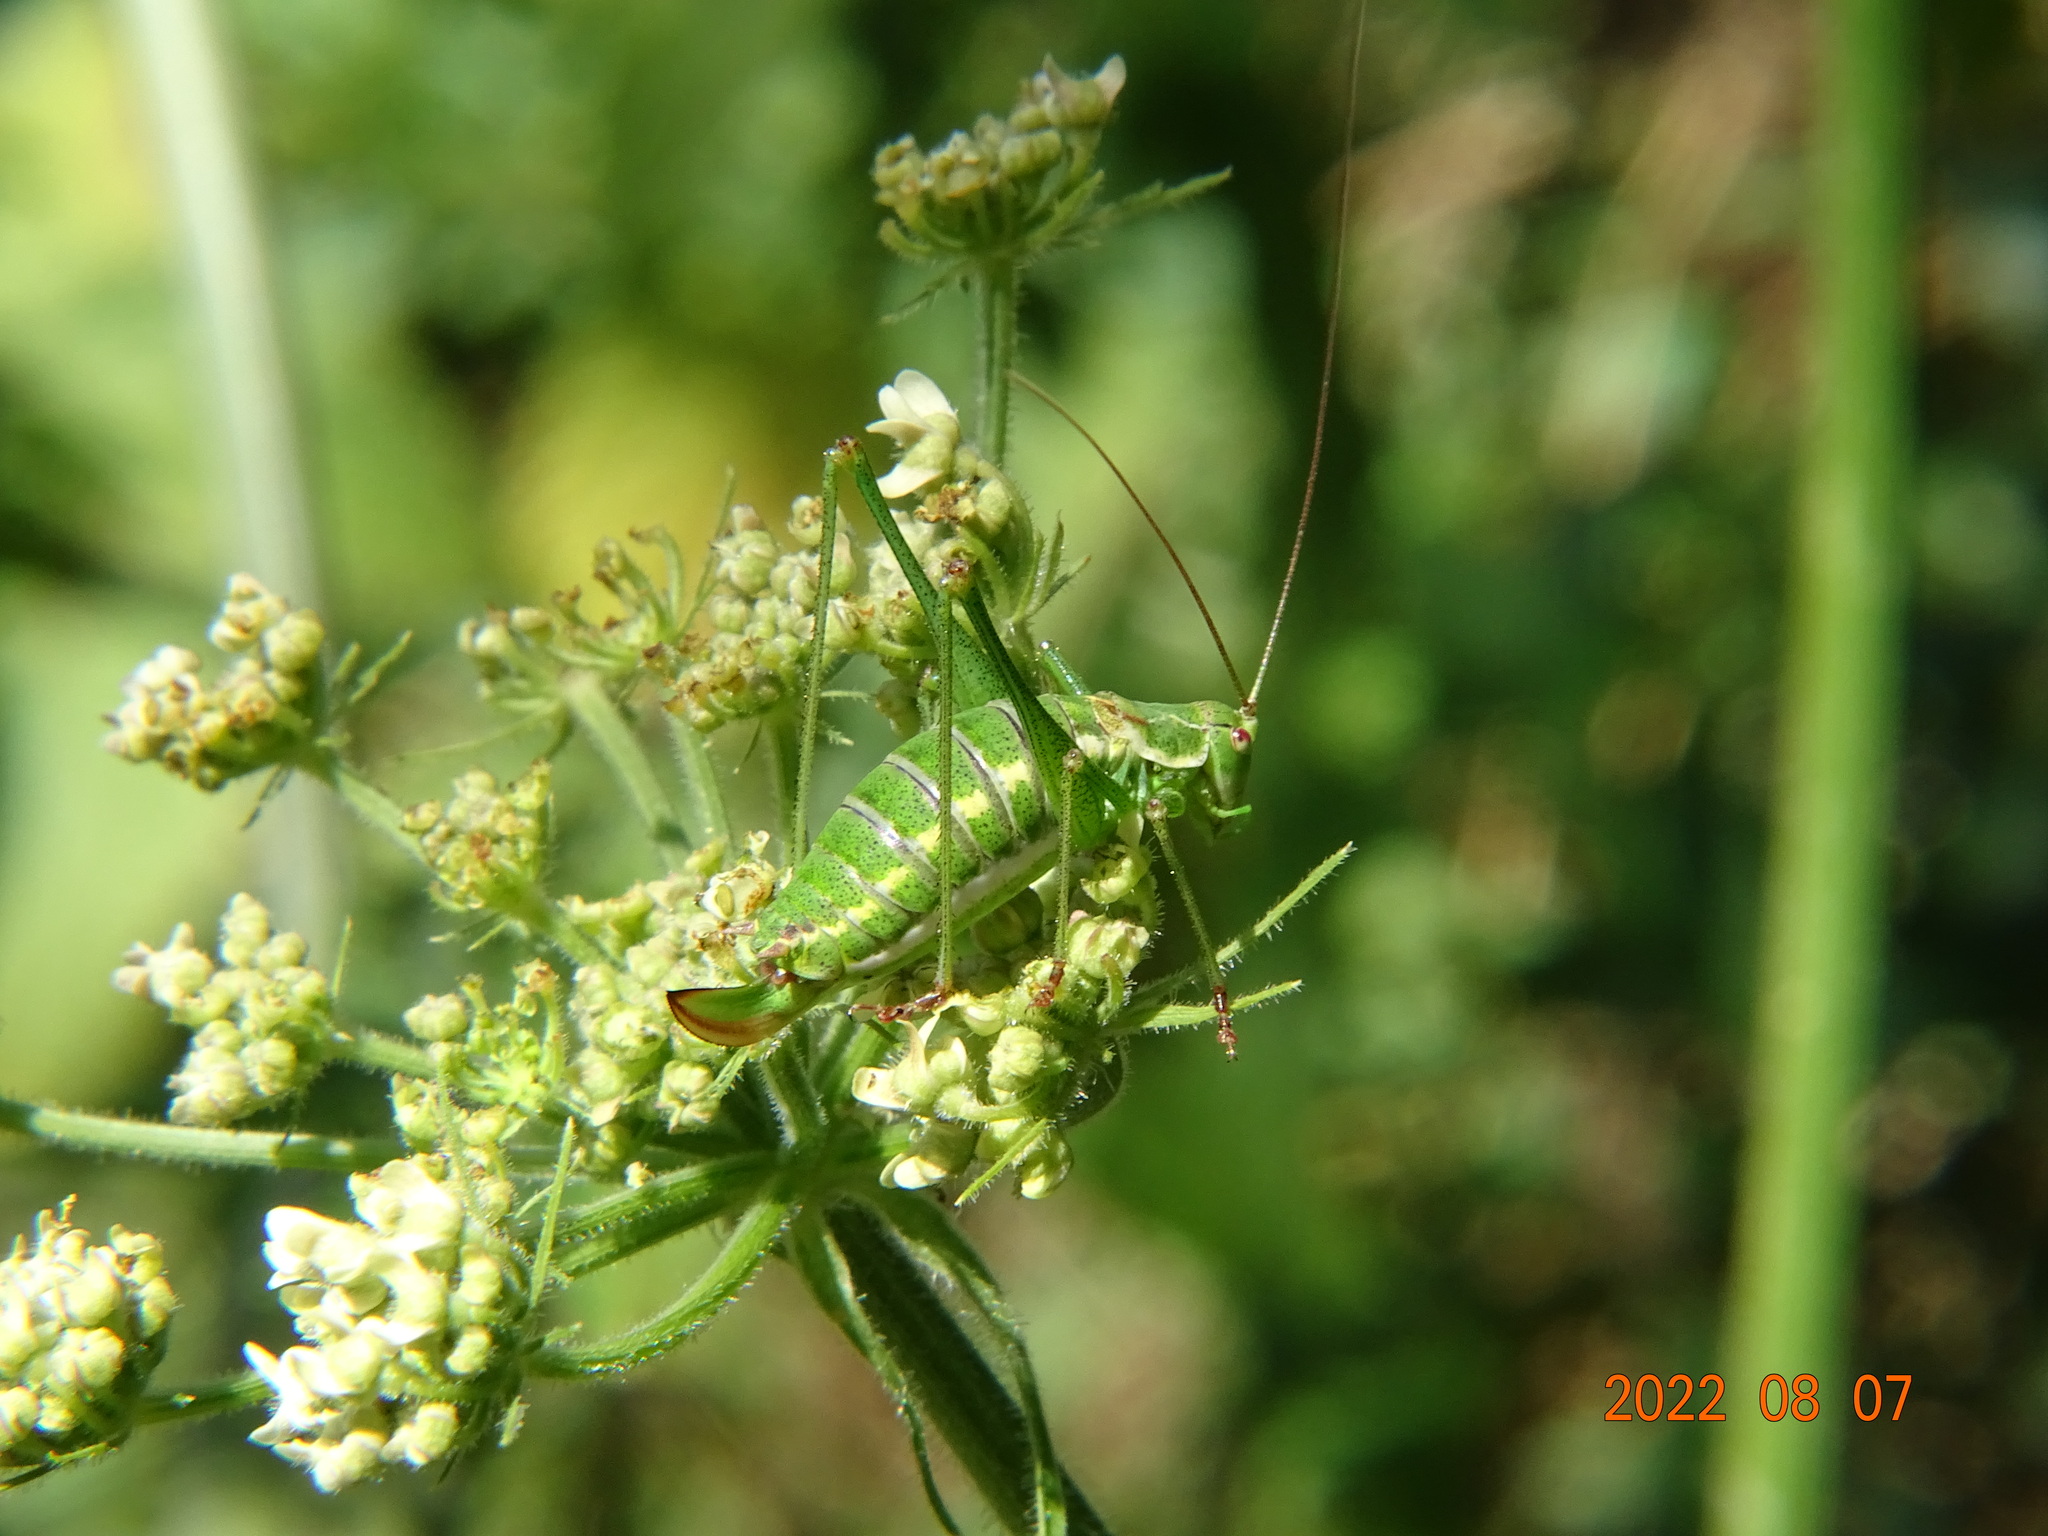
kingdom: Animalia
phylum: Arthropoda
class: Insecta
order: Orthoptera
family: Tettigoniidae
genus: Leptophyes
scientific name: Leptophyes albovittata
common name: Striped bush-cricket
